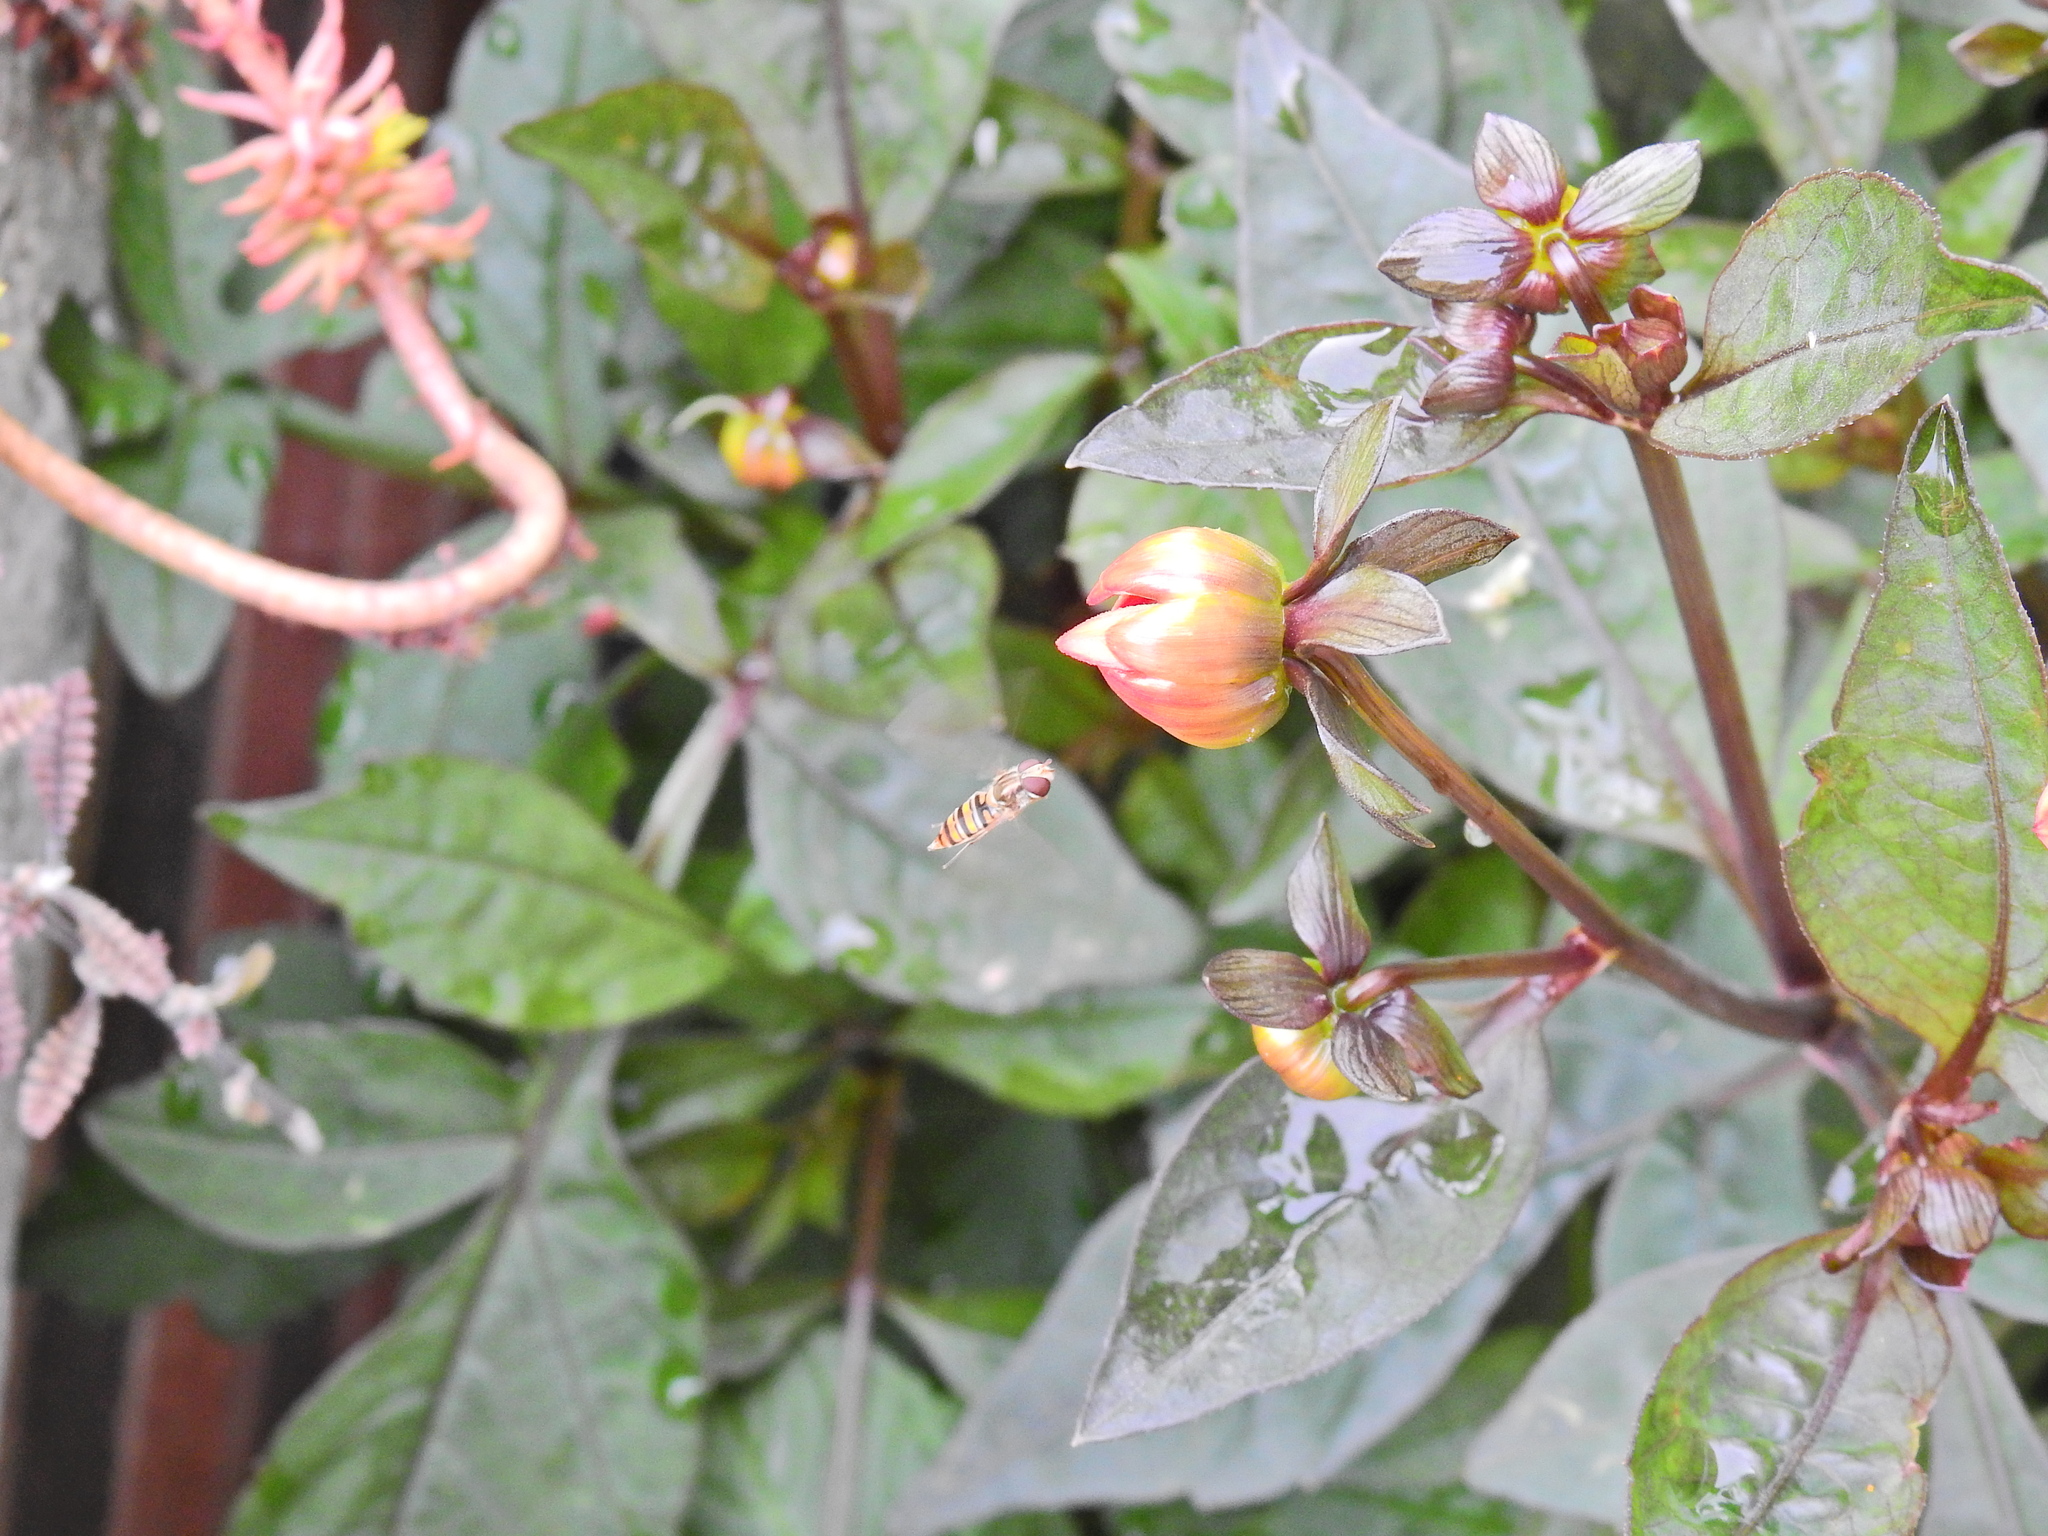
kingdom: Animalia
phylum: Arthropoda
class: Insecta
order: Diptera
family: Syrphidae
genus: Episyrphus
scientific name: Episyrphus balteatus
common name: Marmalade hoverfly
